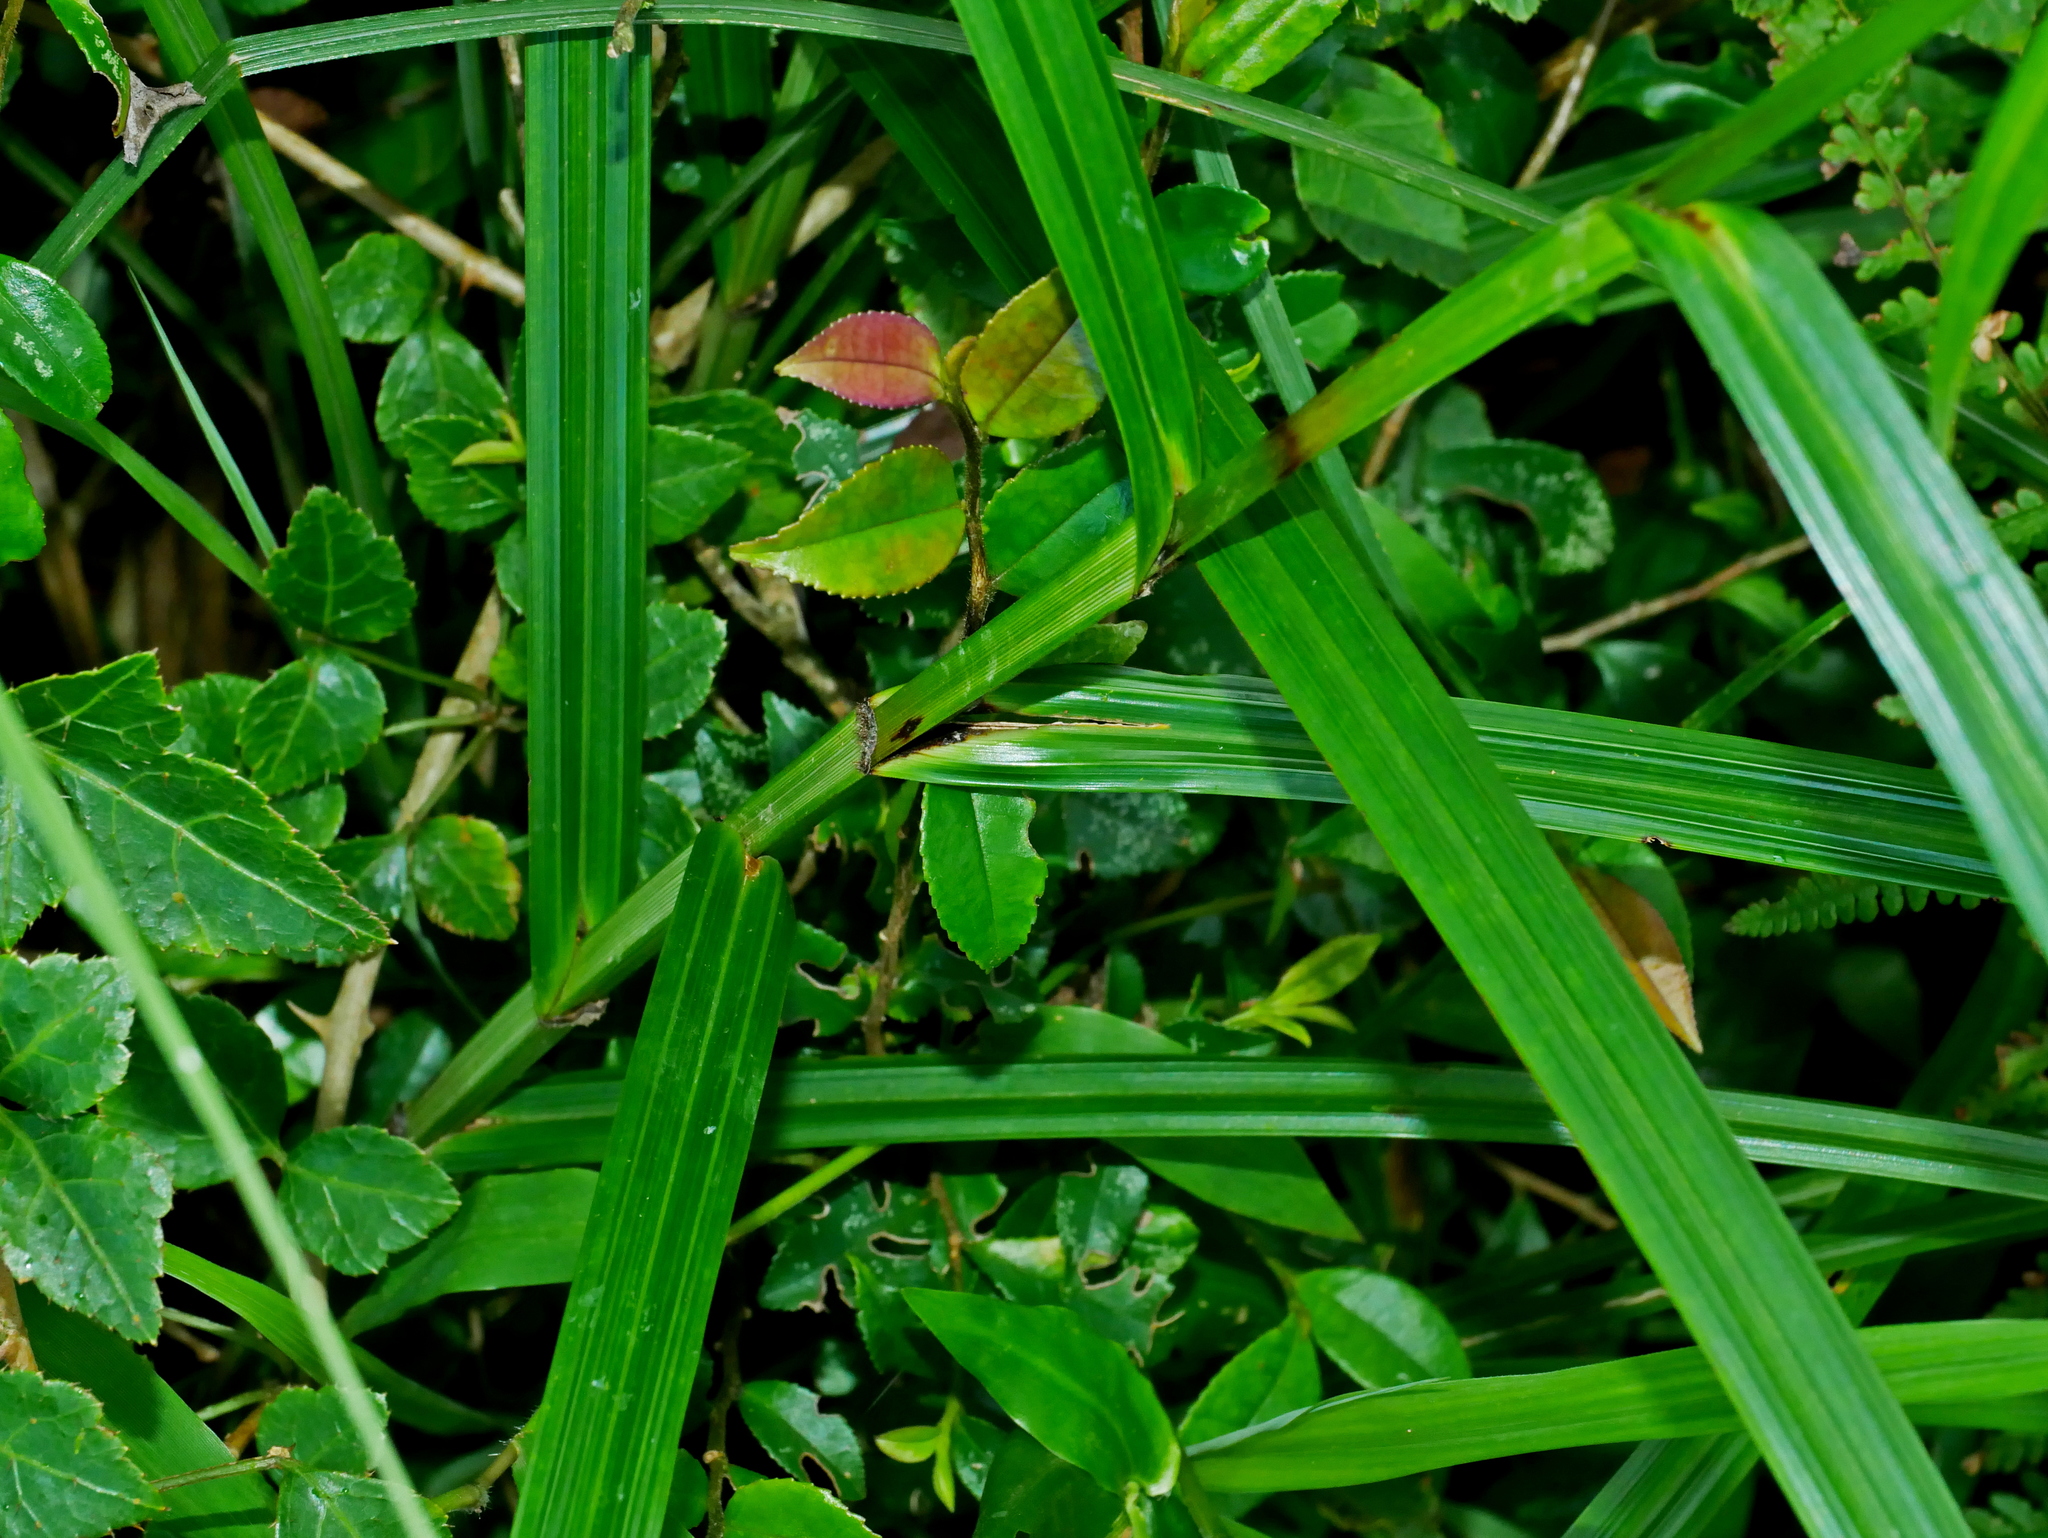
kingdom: Plantae
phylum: Tracheophyta
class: Liliopsida
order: Poales
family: Cyperaceae
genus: Scleria
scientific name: Scleria terrestris
